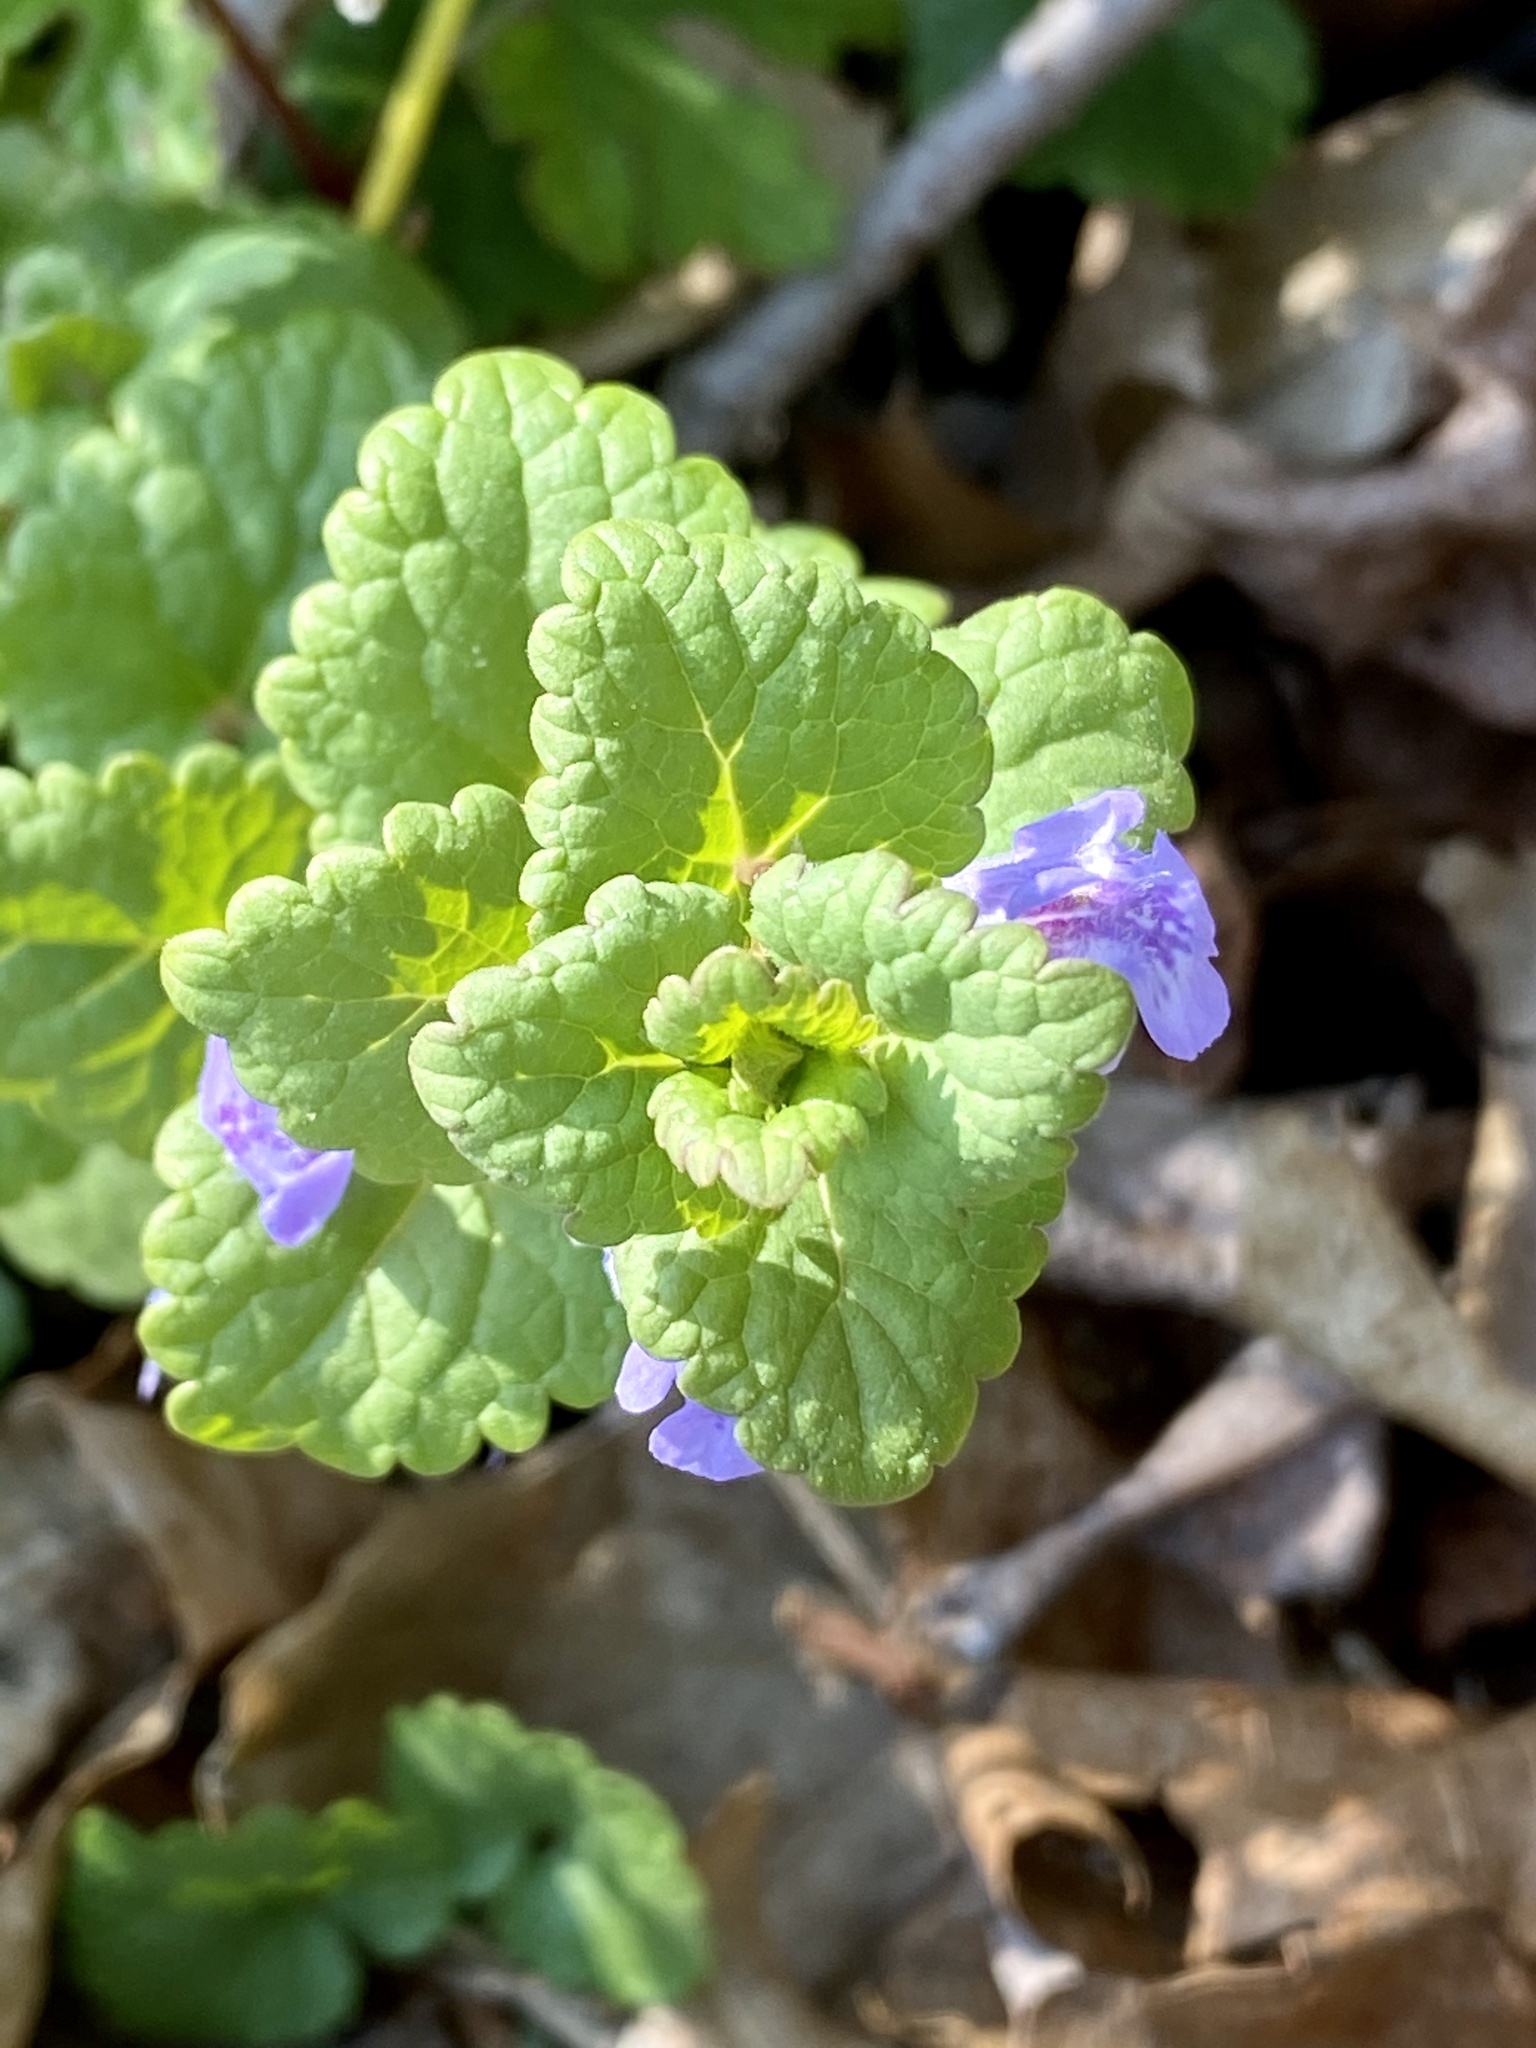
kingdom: Plantae
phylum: Tracheophyta
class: Magnoliopsida
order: Lamiales
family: Lamiaceae
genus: Glechoma
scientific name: Glechoma hederacea
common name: Ground ivy
